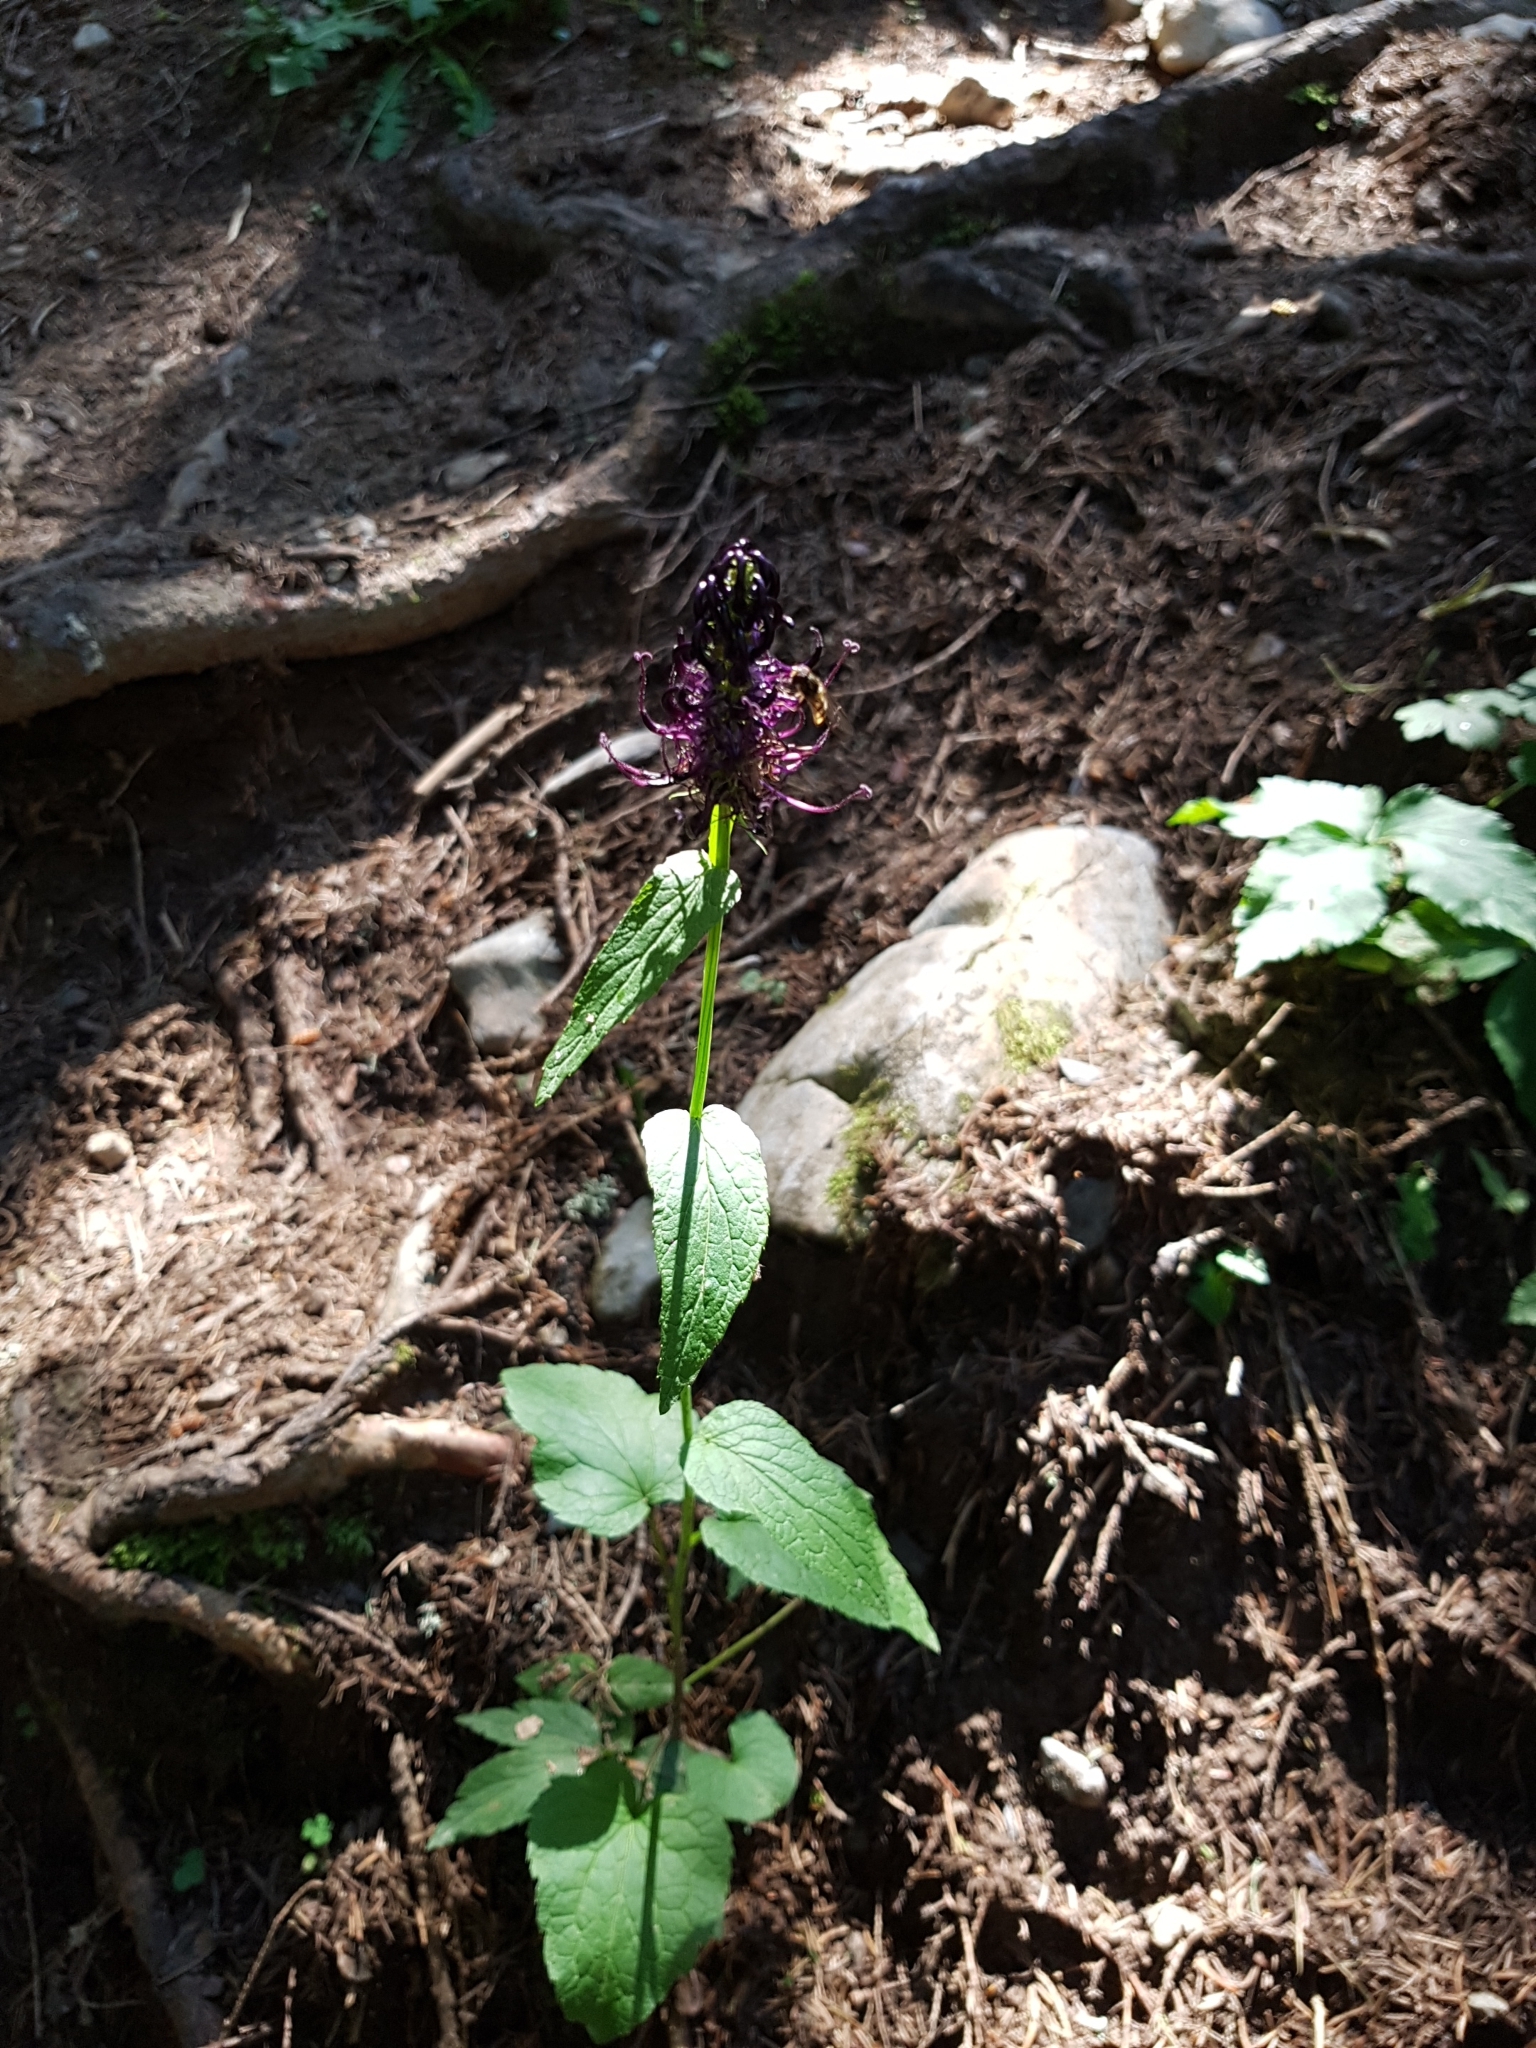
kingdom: Plantae
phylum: Tracheophyta
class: Magnoliopsida
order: Asterales
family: Campanulaceae
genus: Phyteuma
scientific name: Phyteuma ovatum
